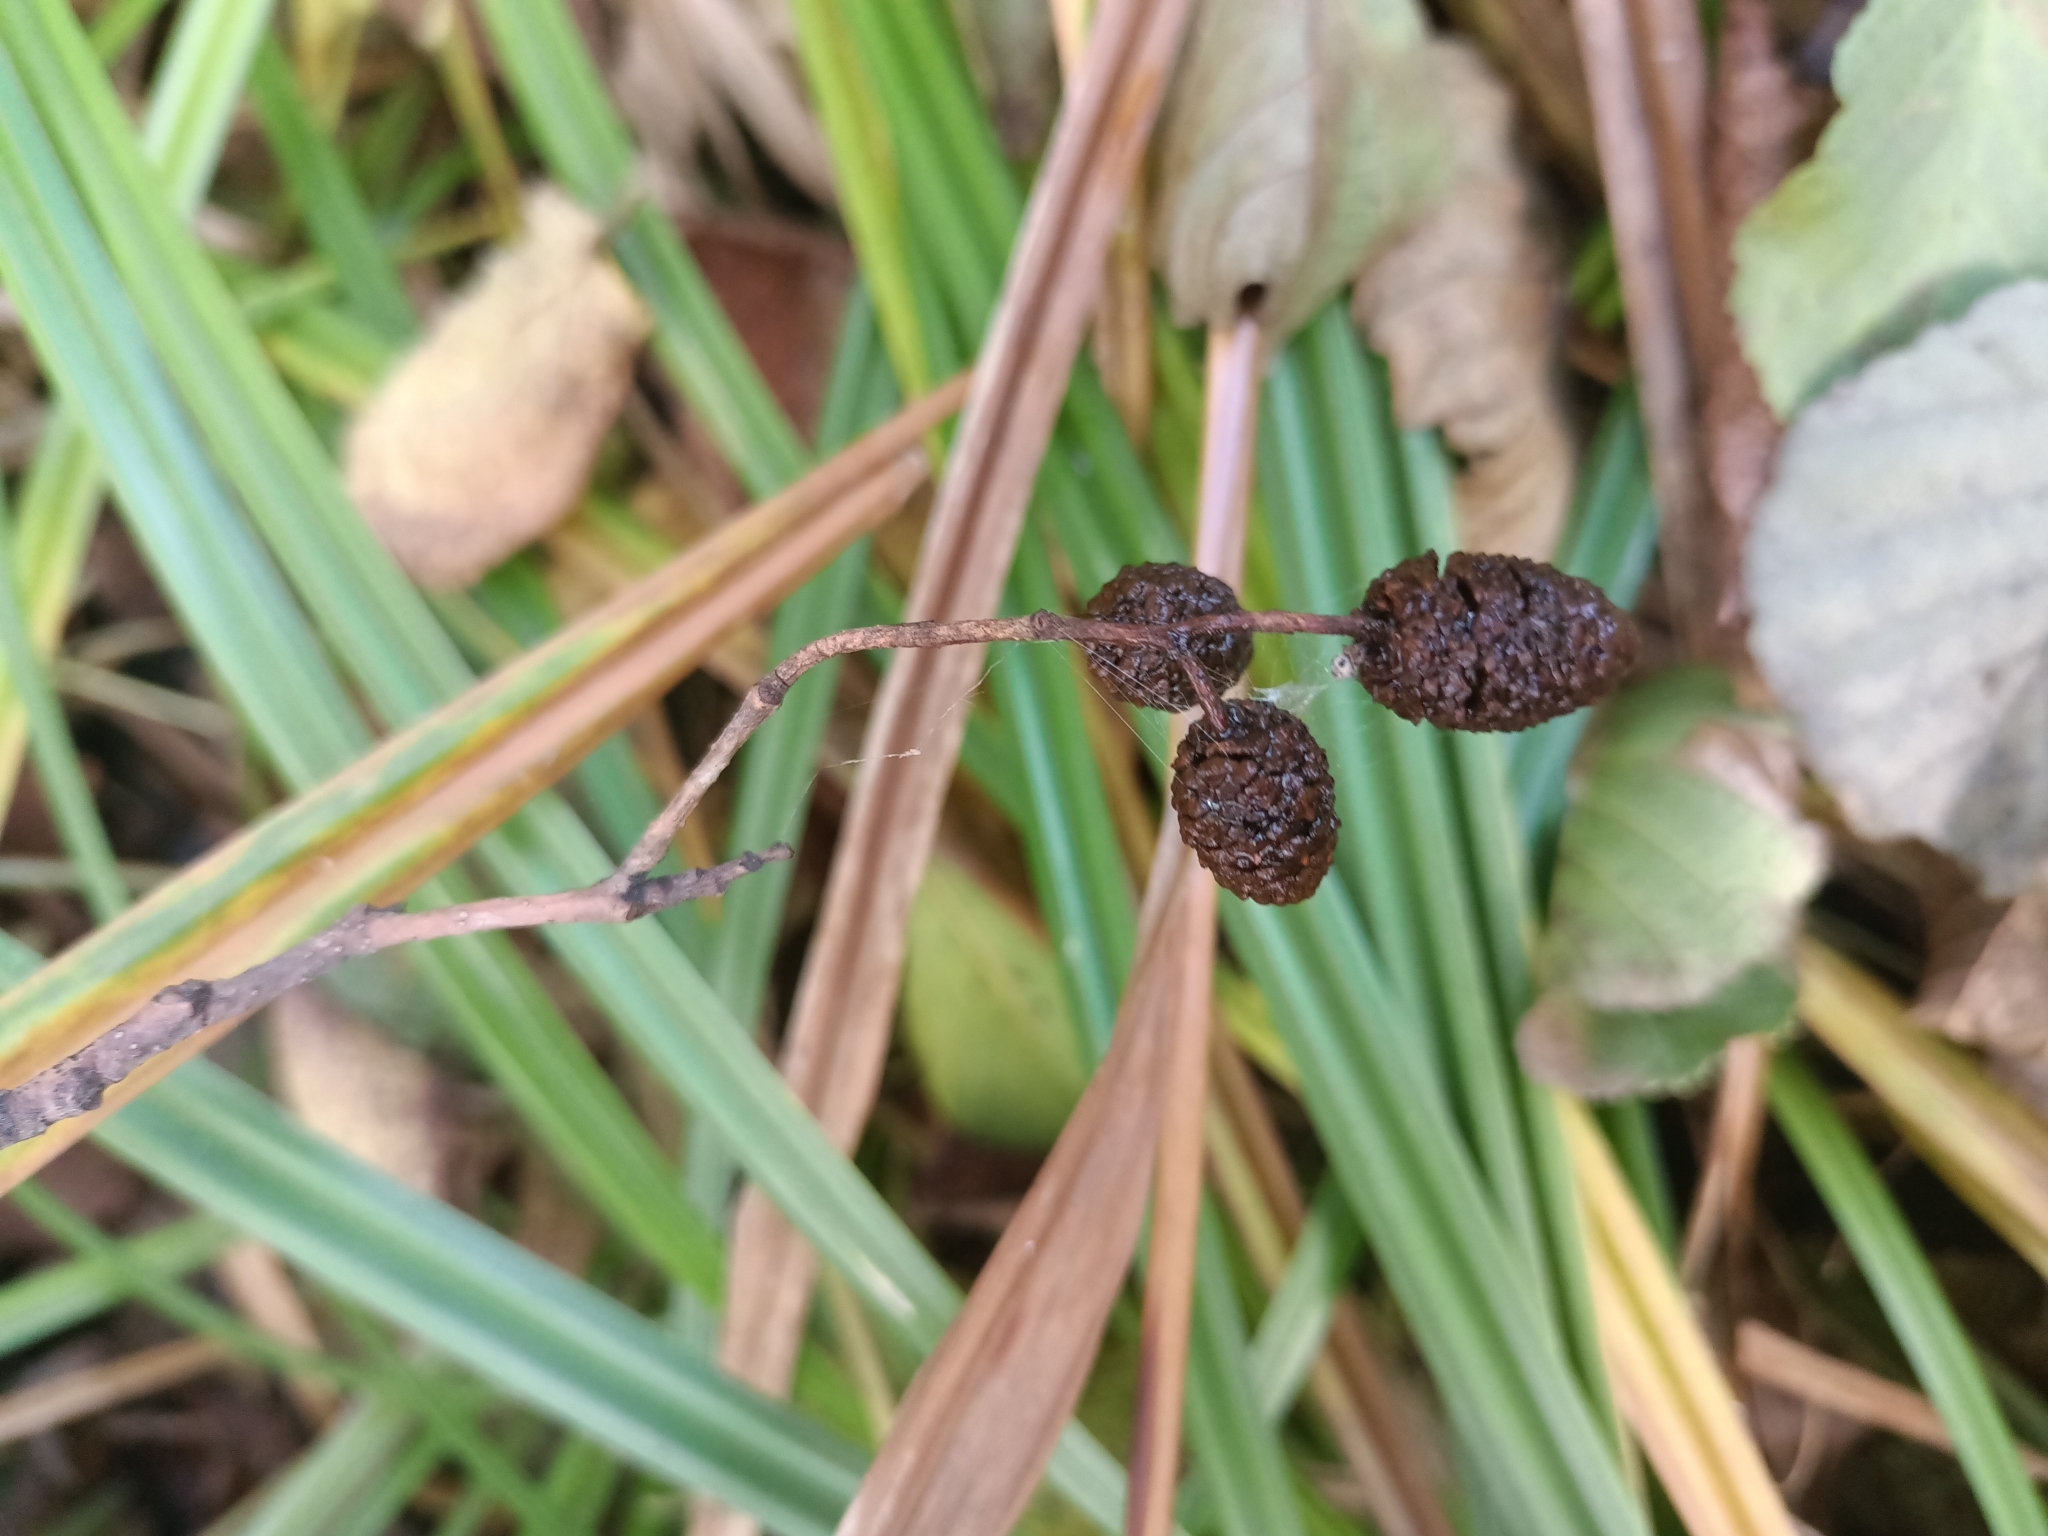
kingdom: Plantae
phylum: Tracheophyta
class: Magnoliopsida
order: Fagales
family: Betulaceae
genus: Alnus
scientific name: Alnus glutinosa
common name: Black alder
